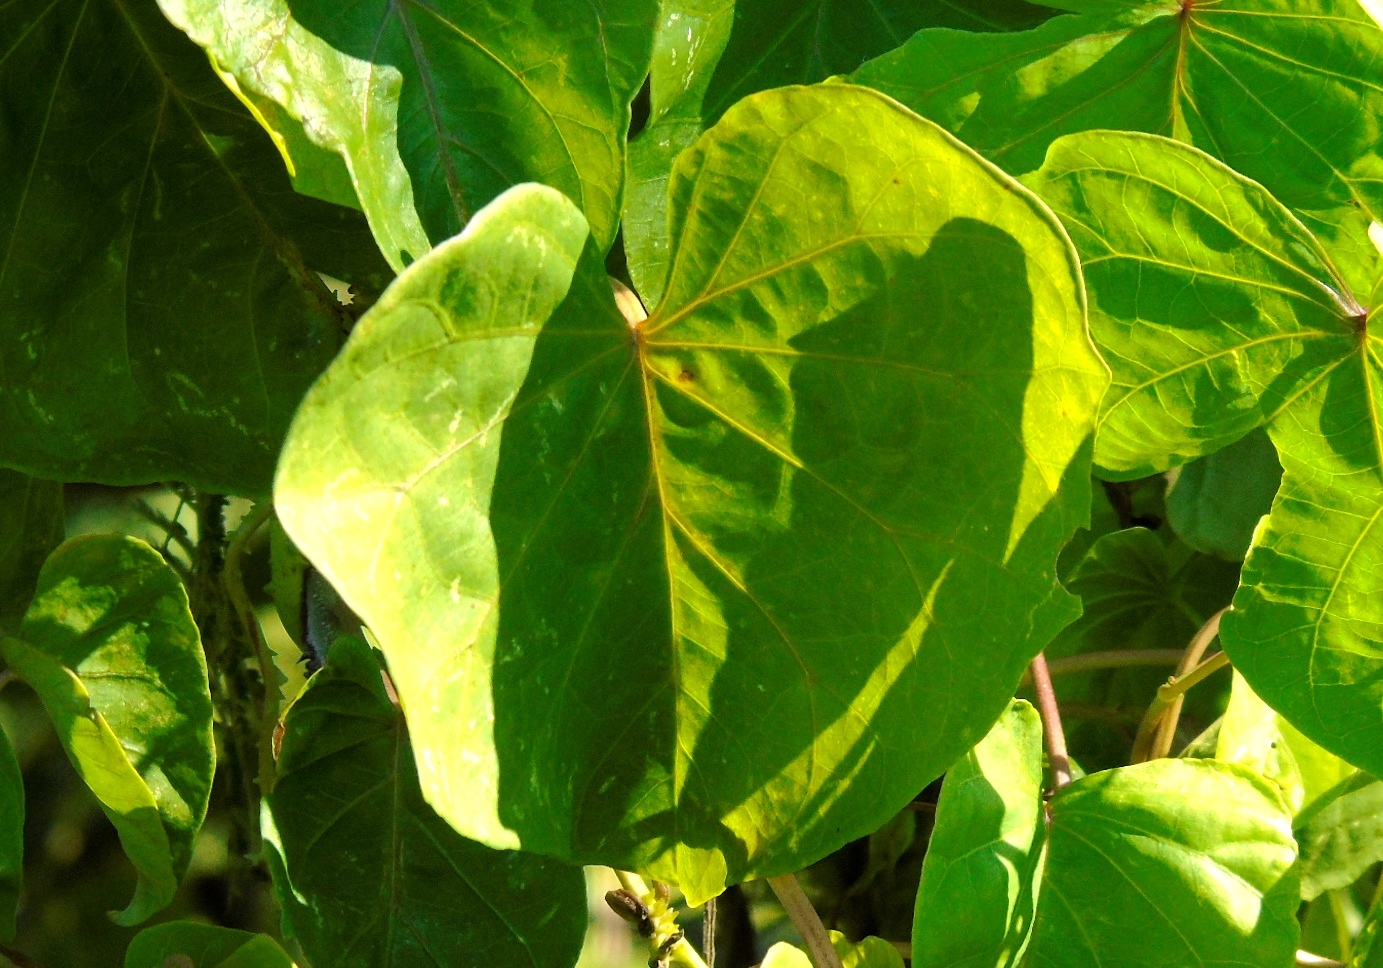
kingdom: Plantae
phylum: Tracheophyta
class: Magnoliopsida
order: Solanales
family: Convolvulaceae
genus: Ipomoea
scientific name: Ipomoea alba
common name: Moonflower
